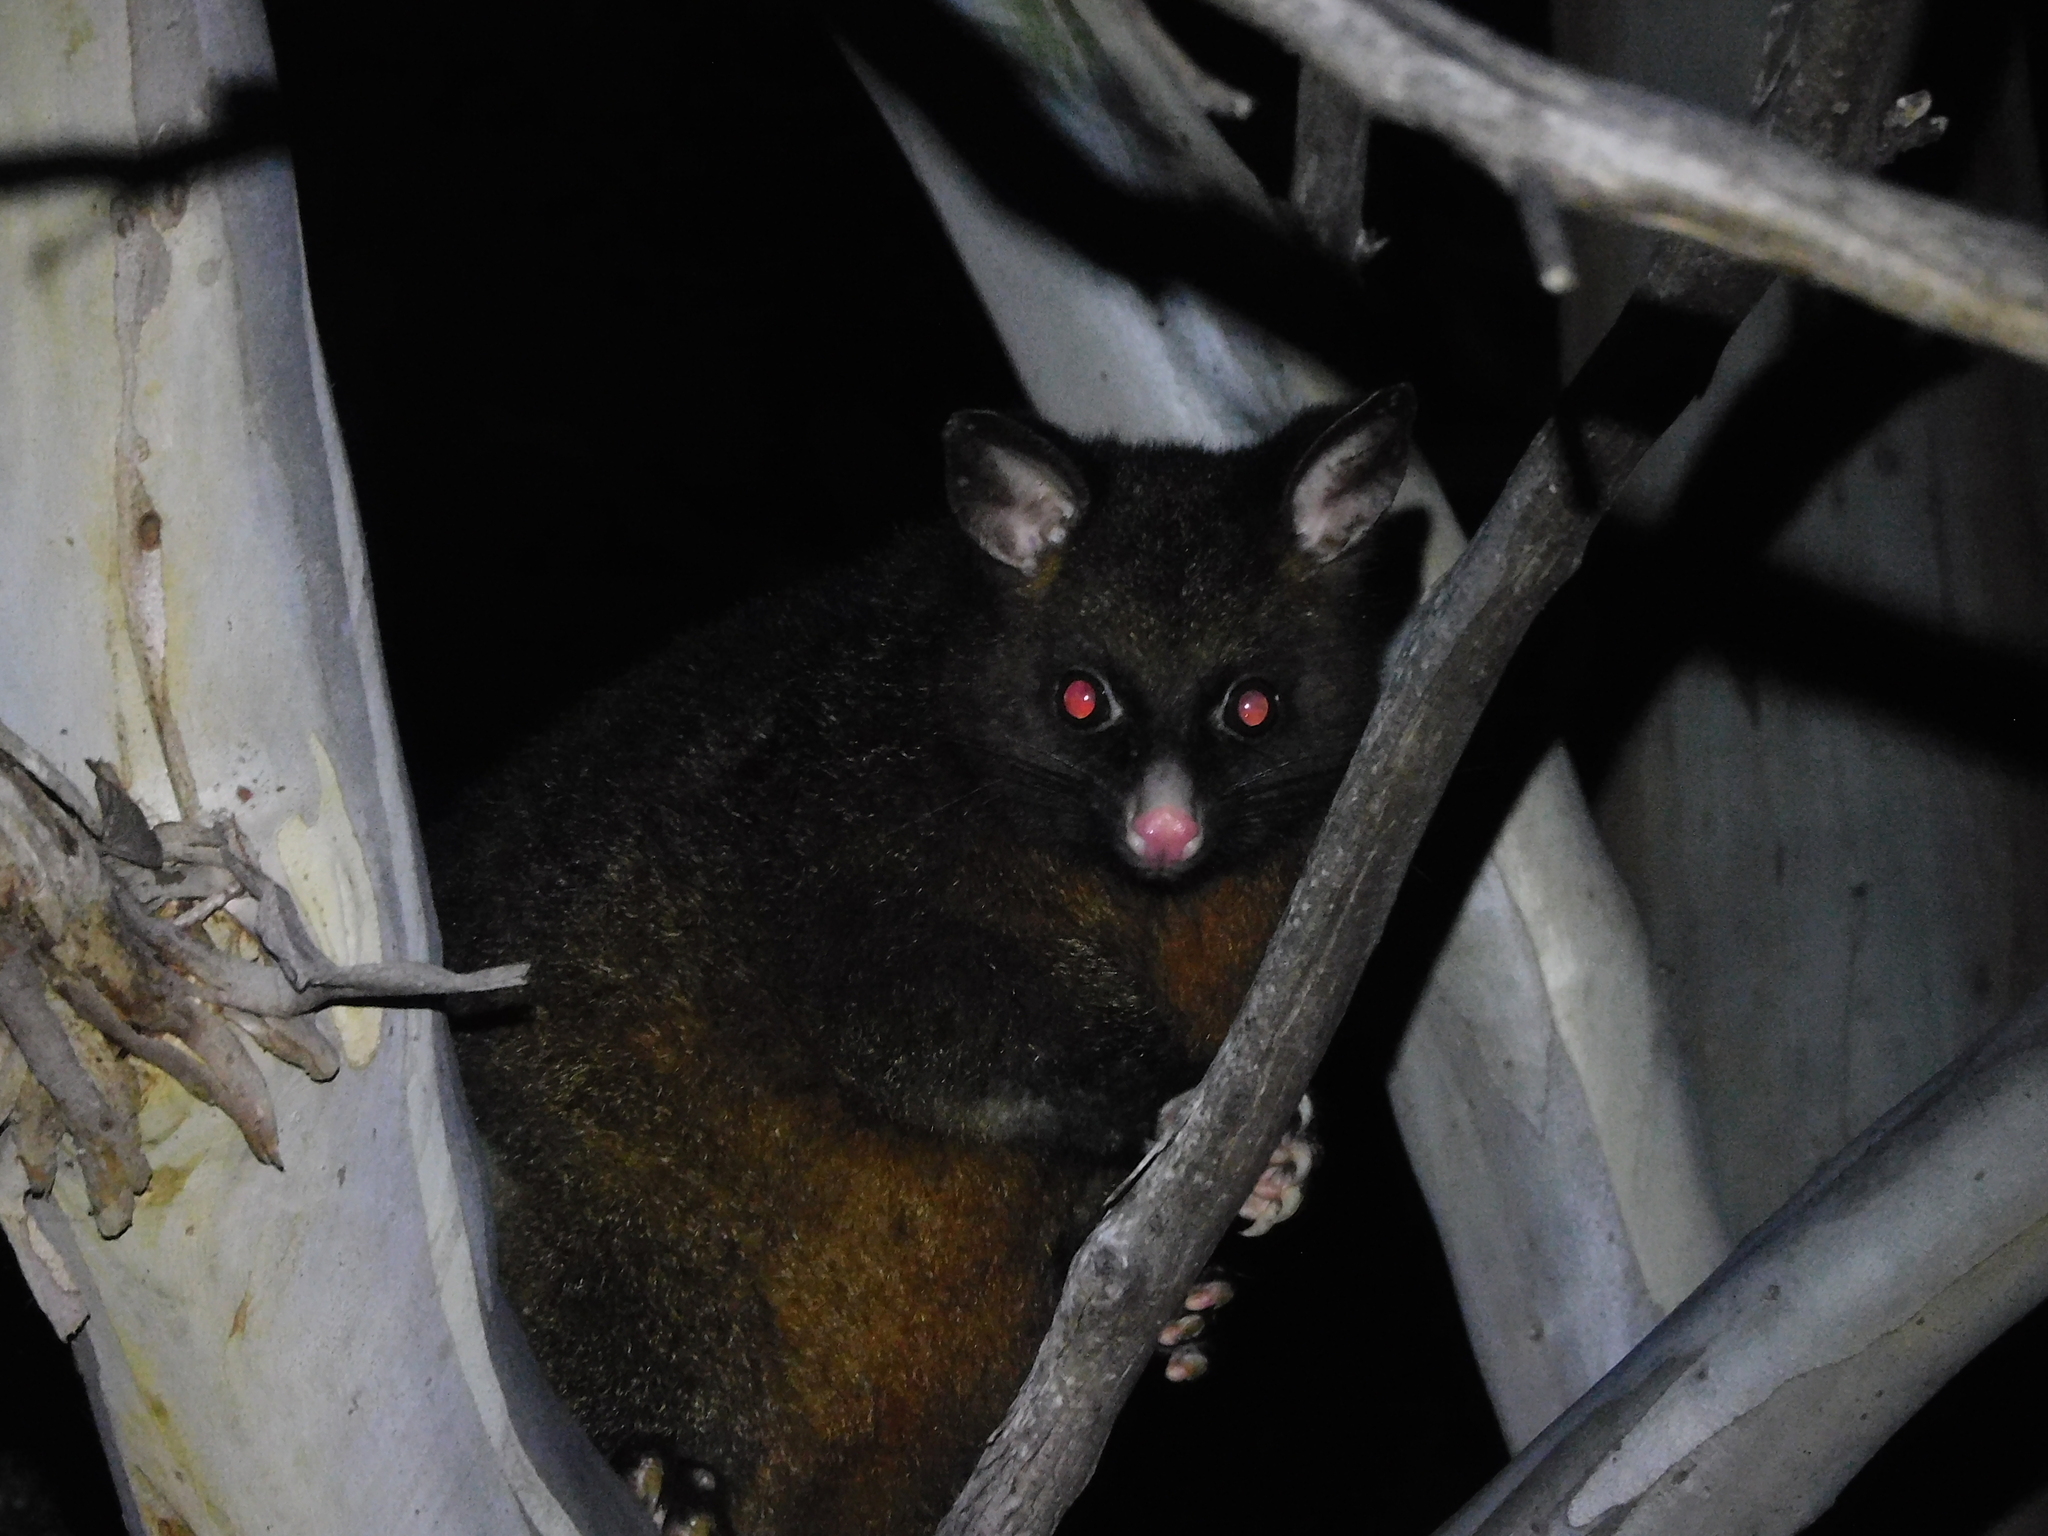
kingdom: Animalia
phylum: Chordata
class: Mammalia
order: Diprotodontia
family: Phalangeridae
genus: Trichosurus
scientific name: Trichosurus vulpecula
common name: Common brushtail
